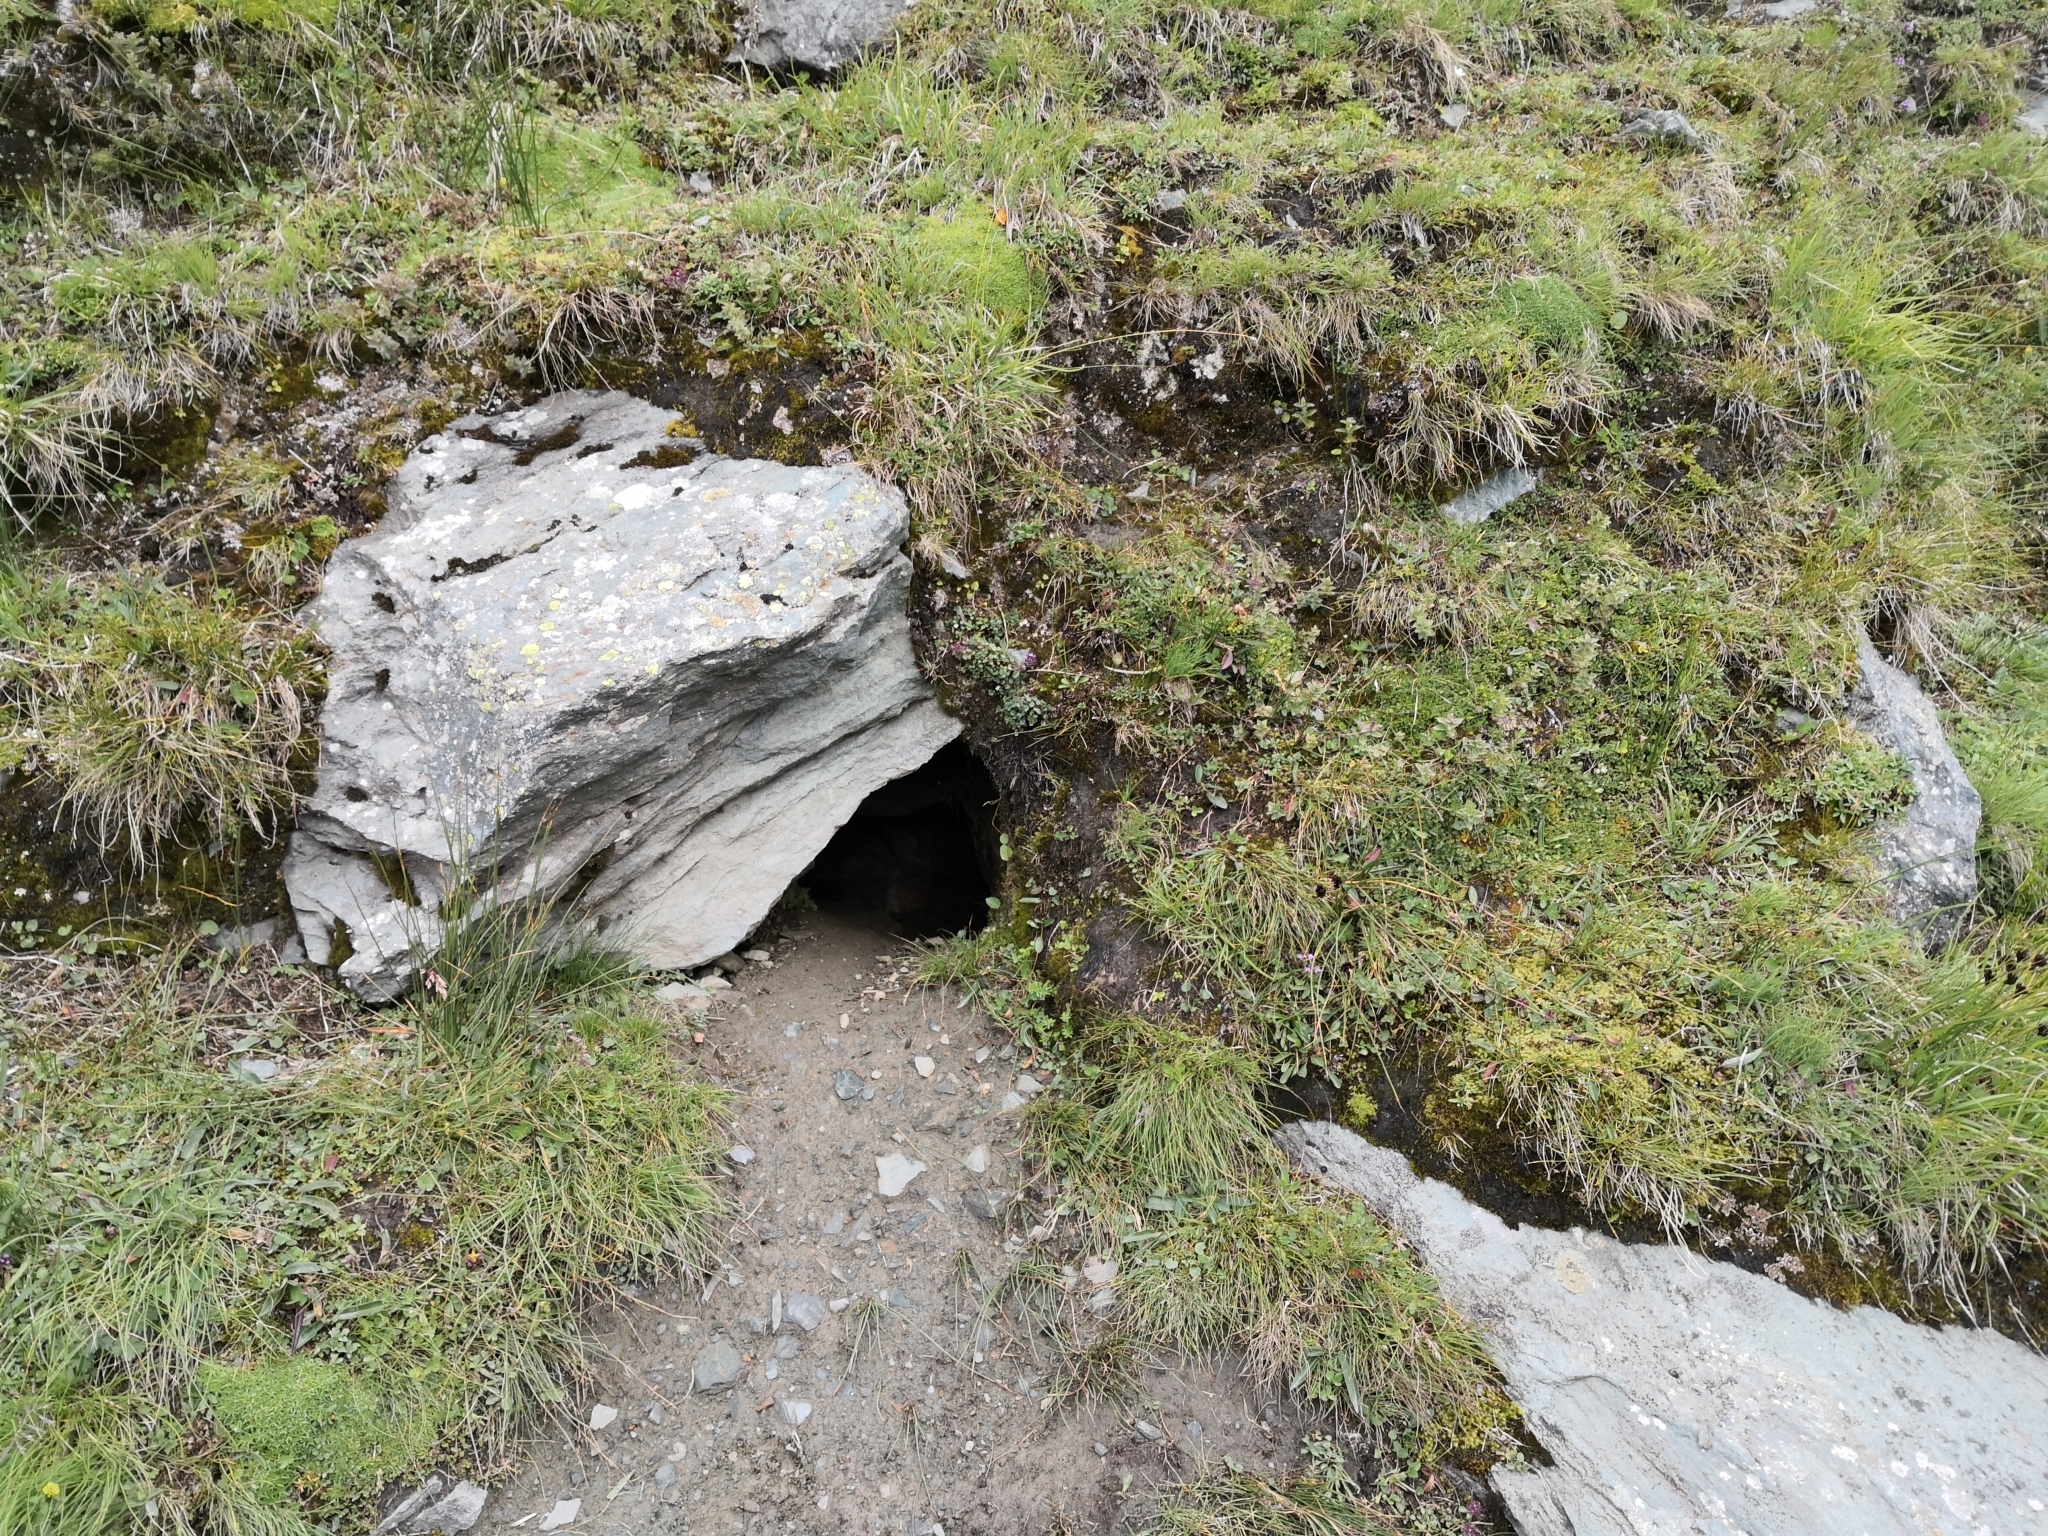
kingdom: Animalia
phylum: Chordata
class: Mammalia
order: Rodentia
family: Sciuridae
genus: Marmota
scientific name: Marmota marmota
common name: Alpine marmot
